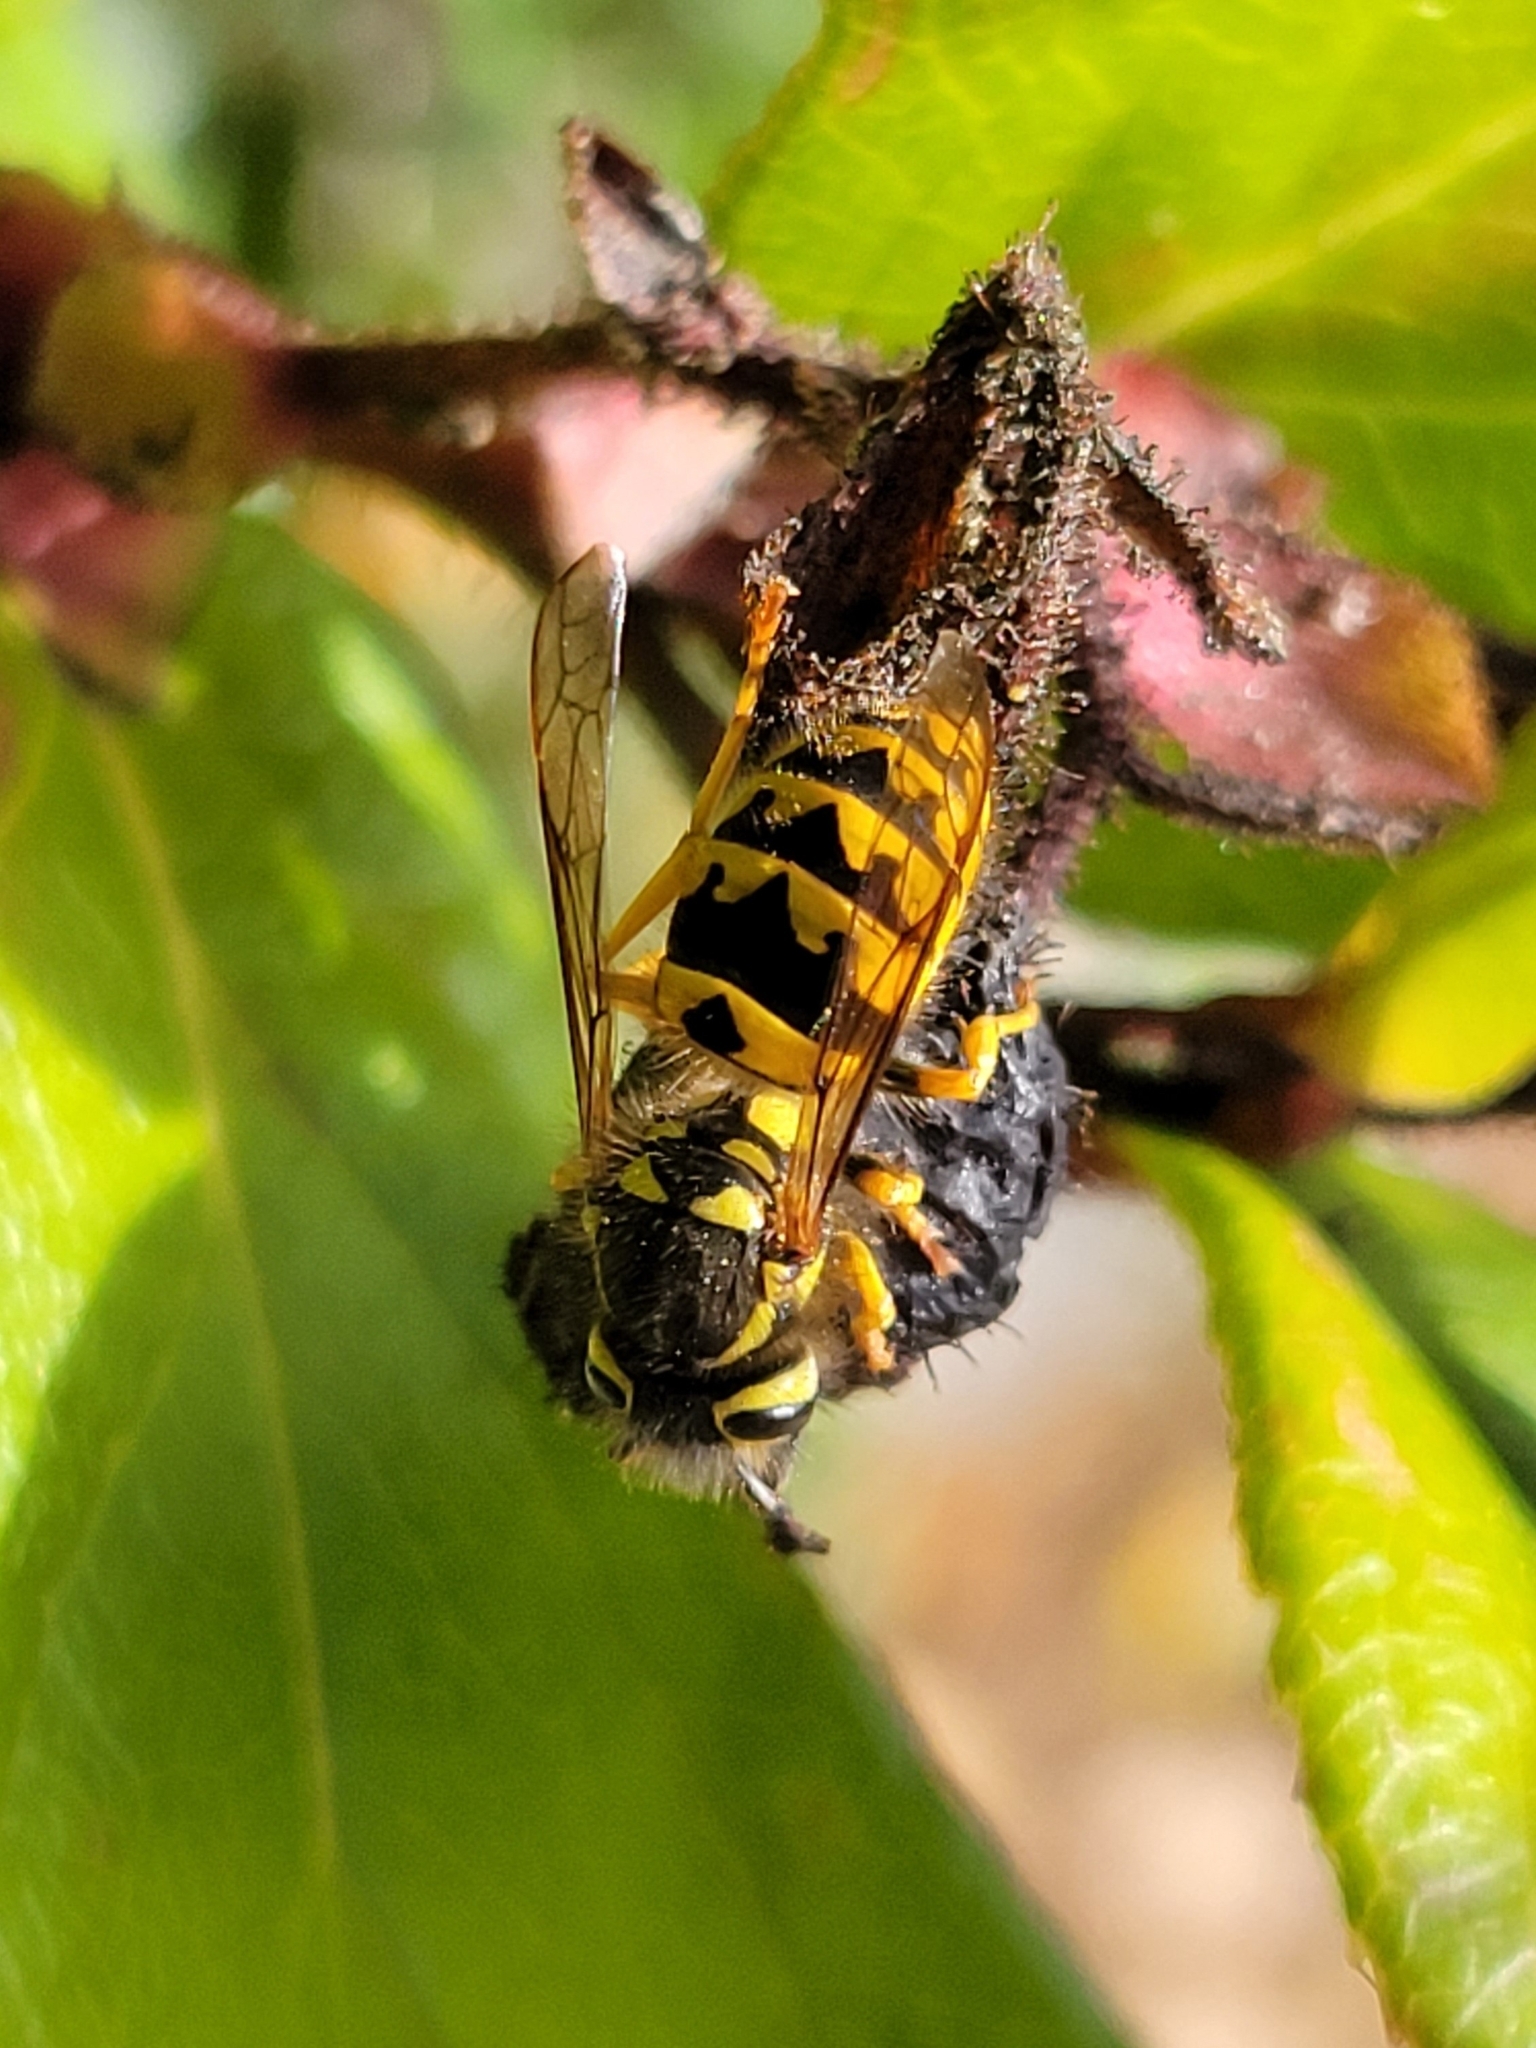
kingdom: Animalia
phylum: Arthropoda
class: Insecta
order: Hymenoptera
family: Vespidae
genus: Vespula
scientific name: Vespula pensylvanica
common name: Western yellowjacket
